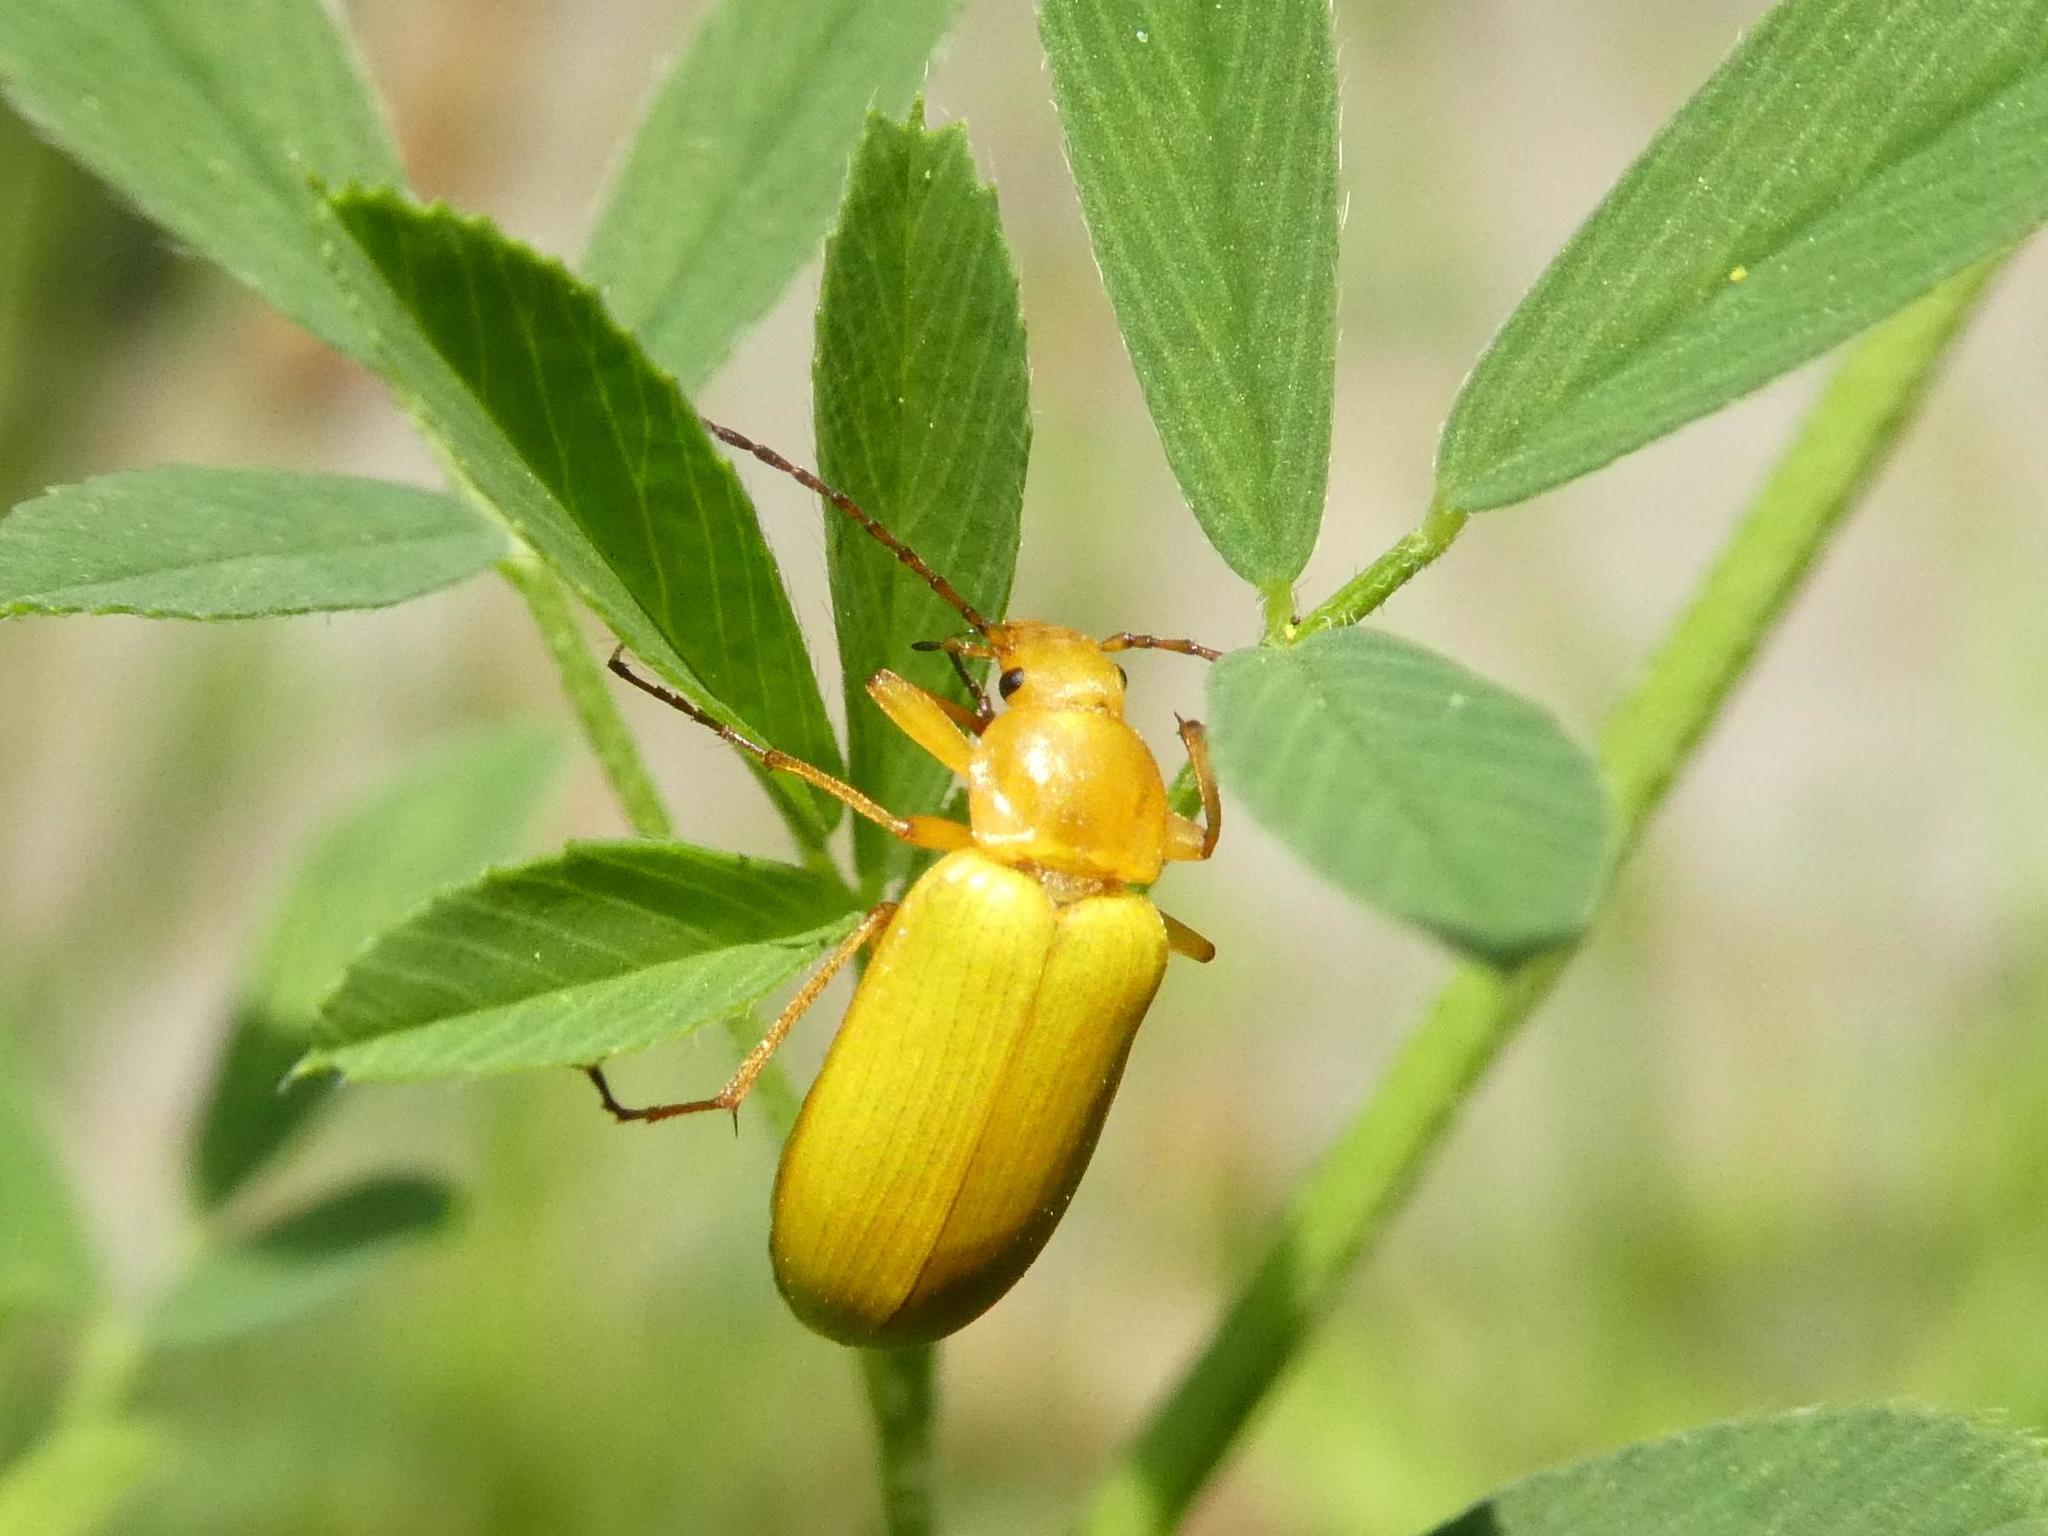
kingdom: Animalia
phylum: Arthropoda
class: Insecta
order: Coleoptera
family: Tenebrionidae
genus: Cteniopus
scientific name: Cteniopus sulphureus
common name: Sulphur beetle
